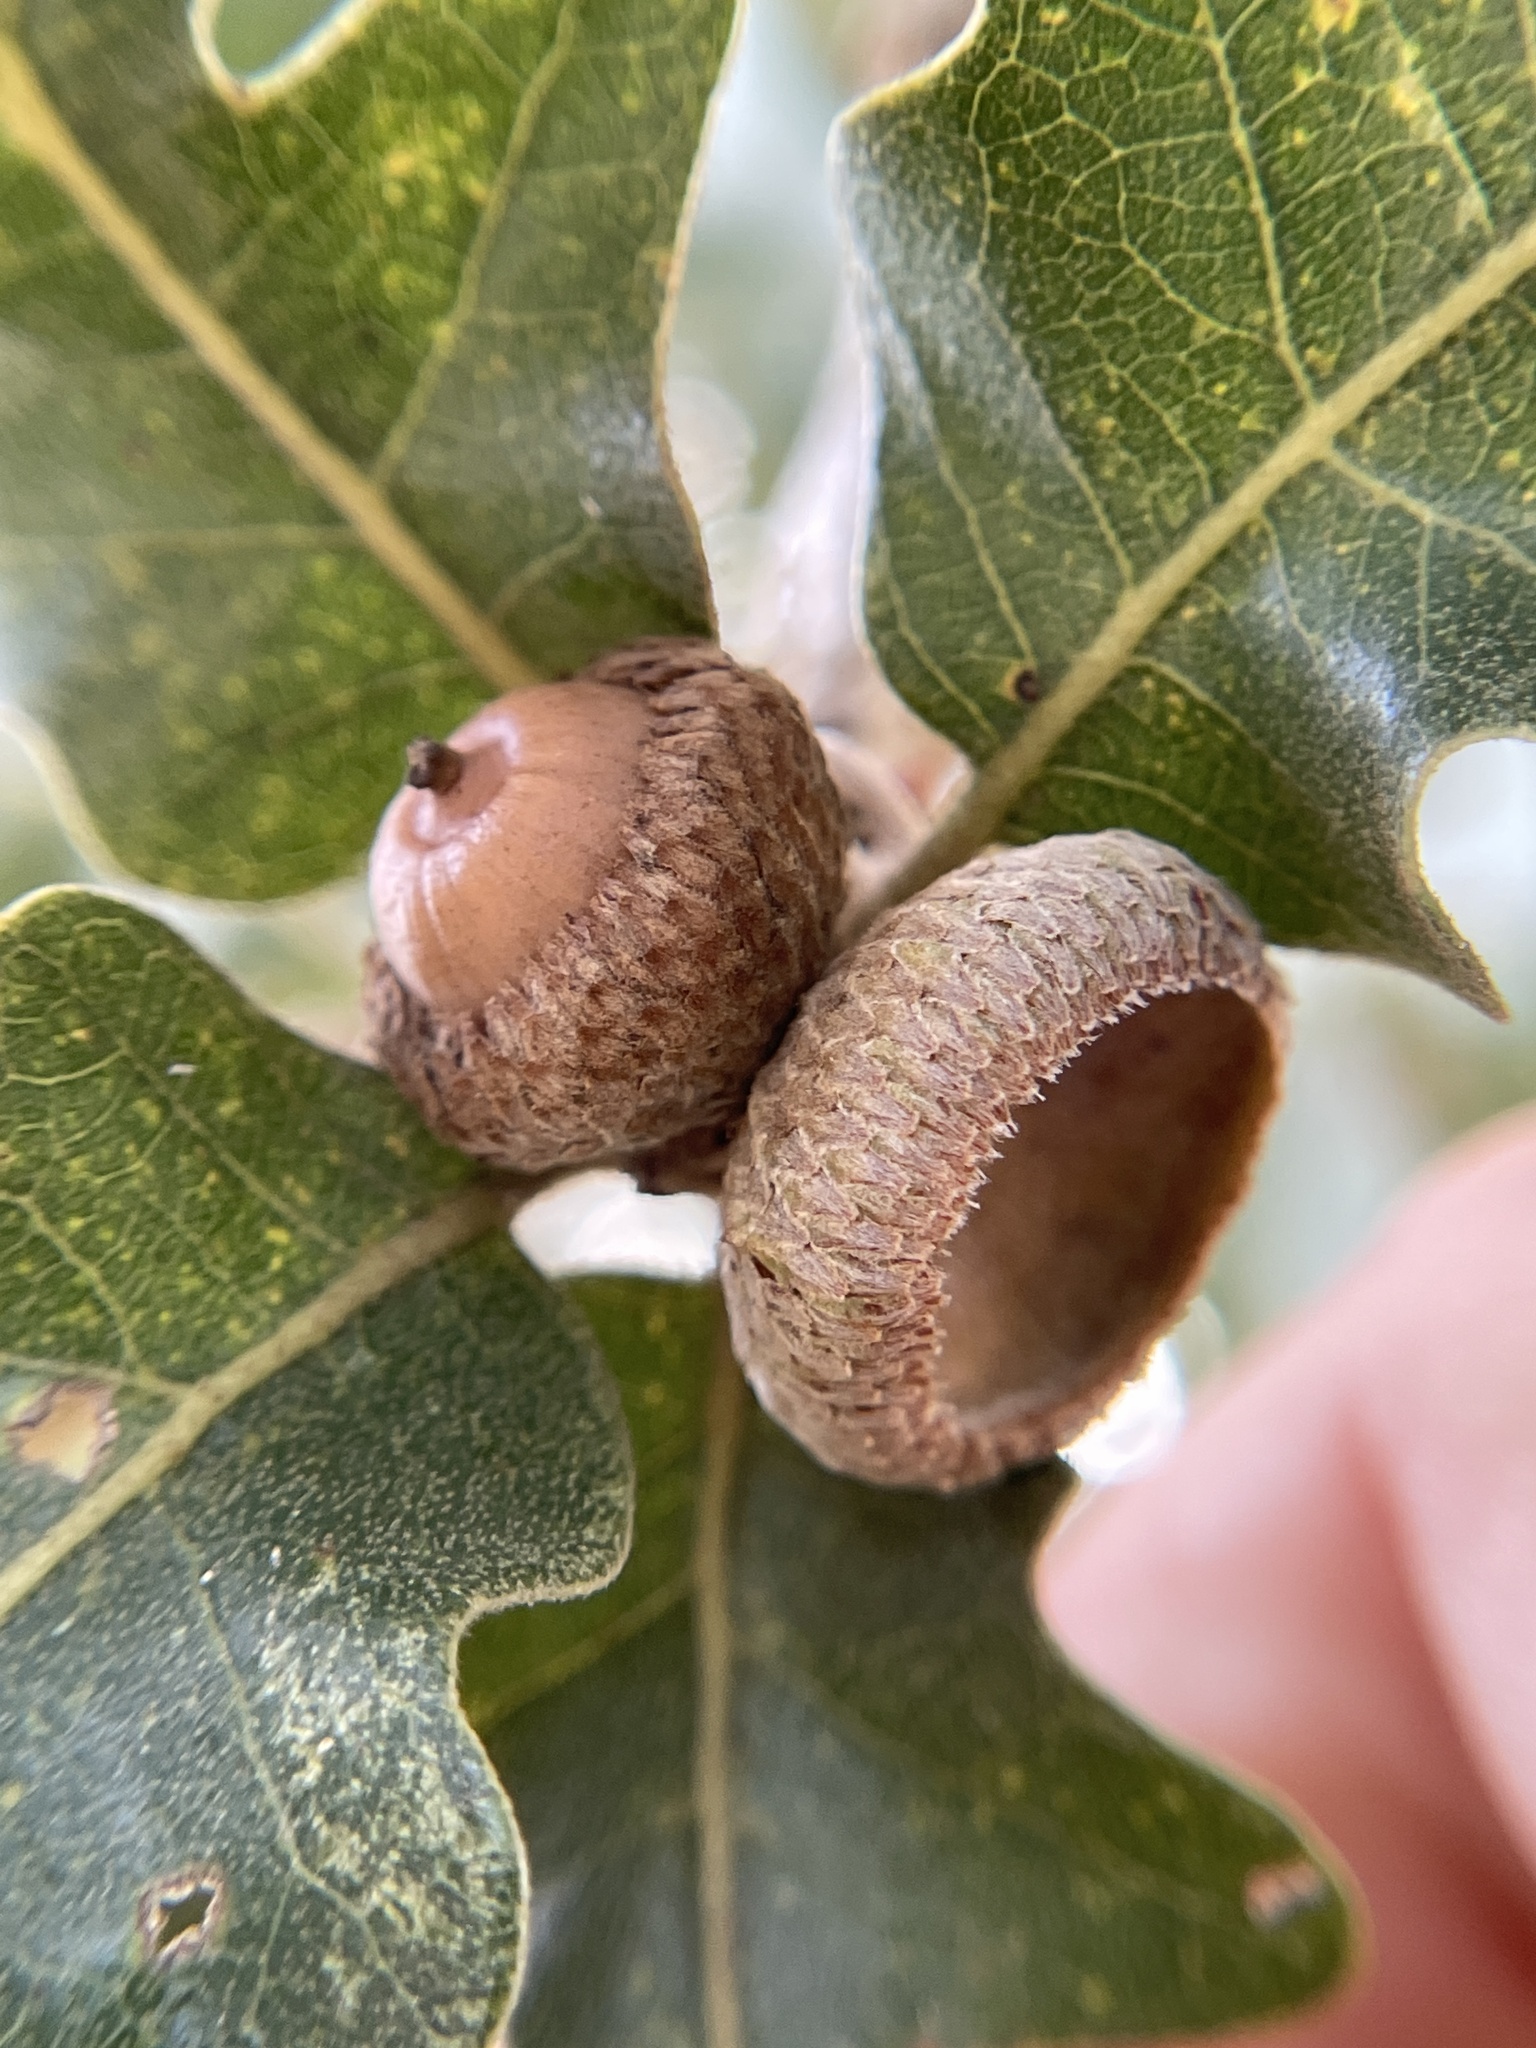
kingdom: Plantae
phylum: Tracheophyta
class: Magnoliopsida
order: Fagales
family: Fagaceae
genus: Quercus
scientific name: Quercus stellata
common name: Post oak
